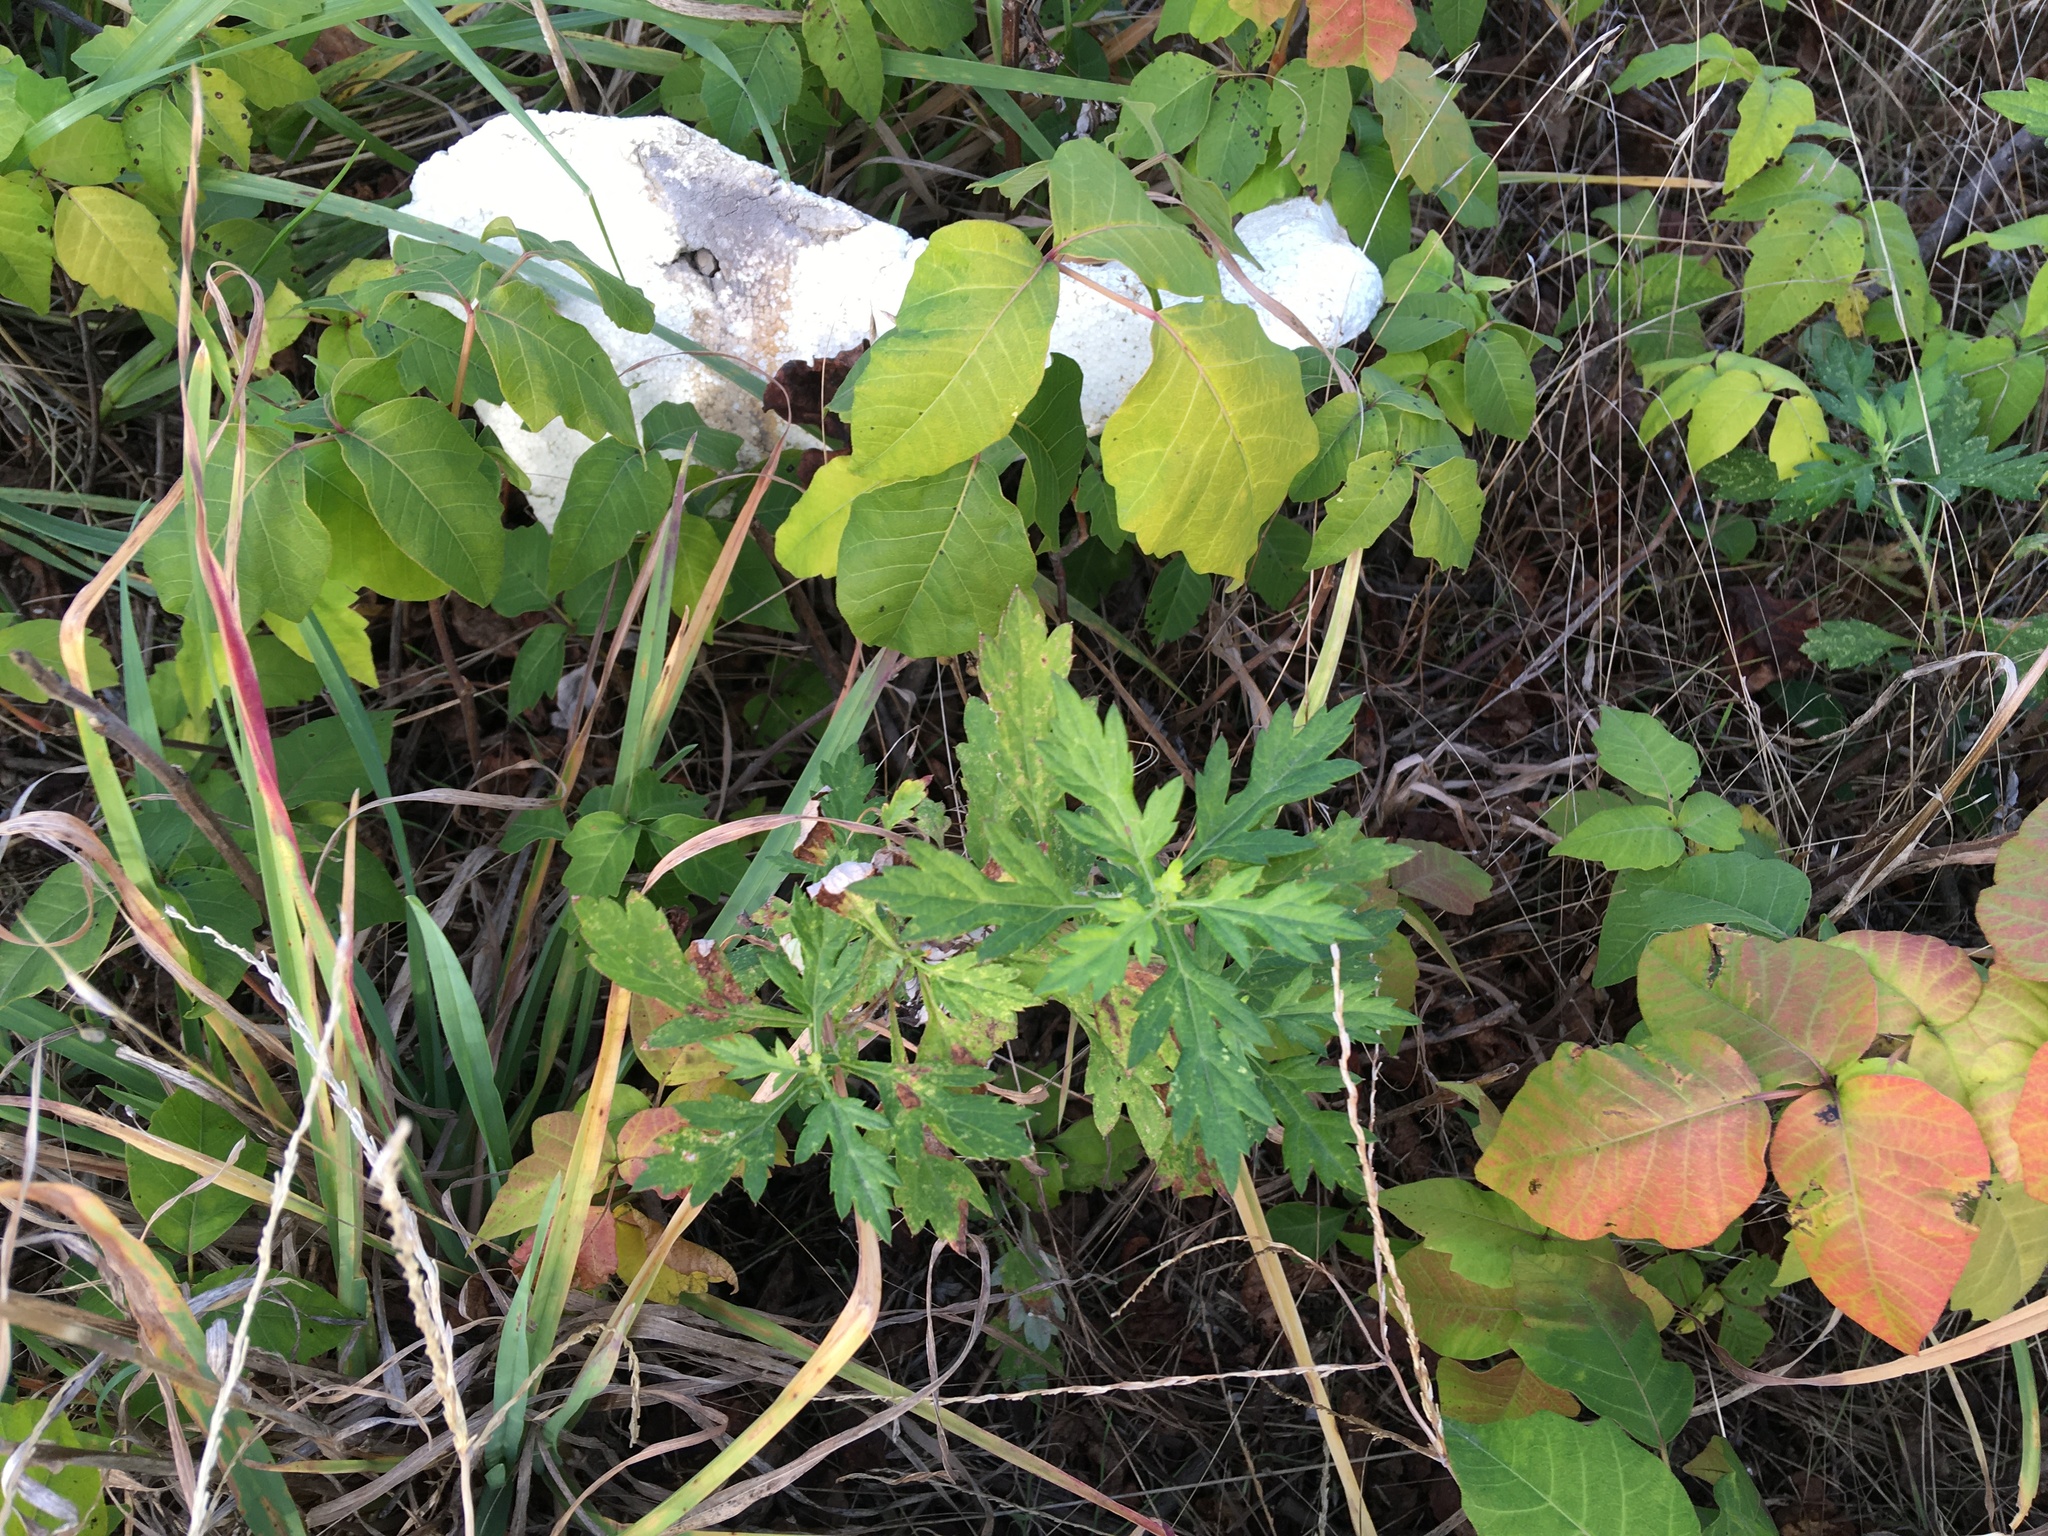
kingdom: Plantae
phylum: Tracheophyta
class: Magnoliopsida
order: Asterales
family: Asteraceae
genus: Artemisia
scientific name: Artemisia vulgaris
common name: Mugwort
